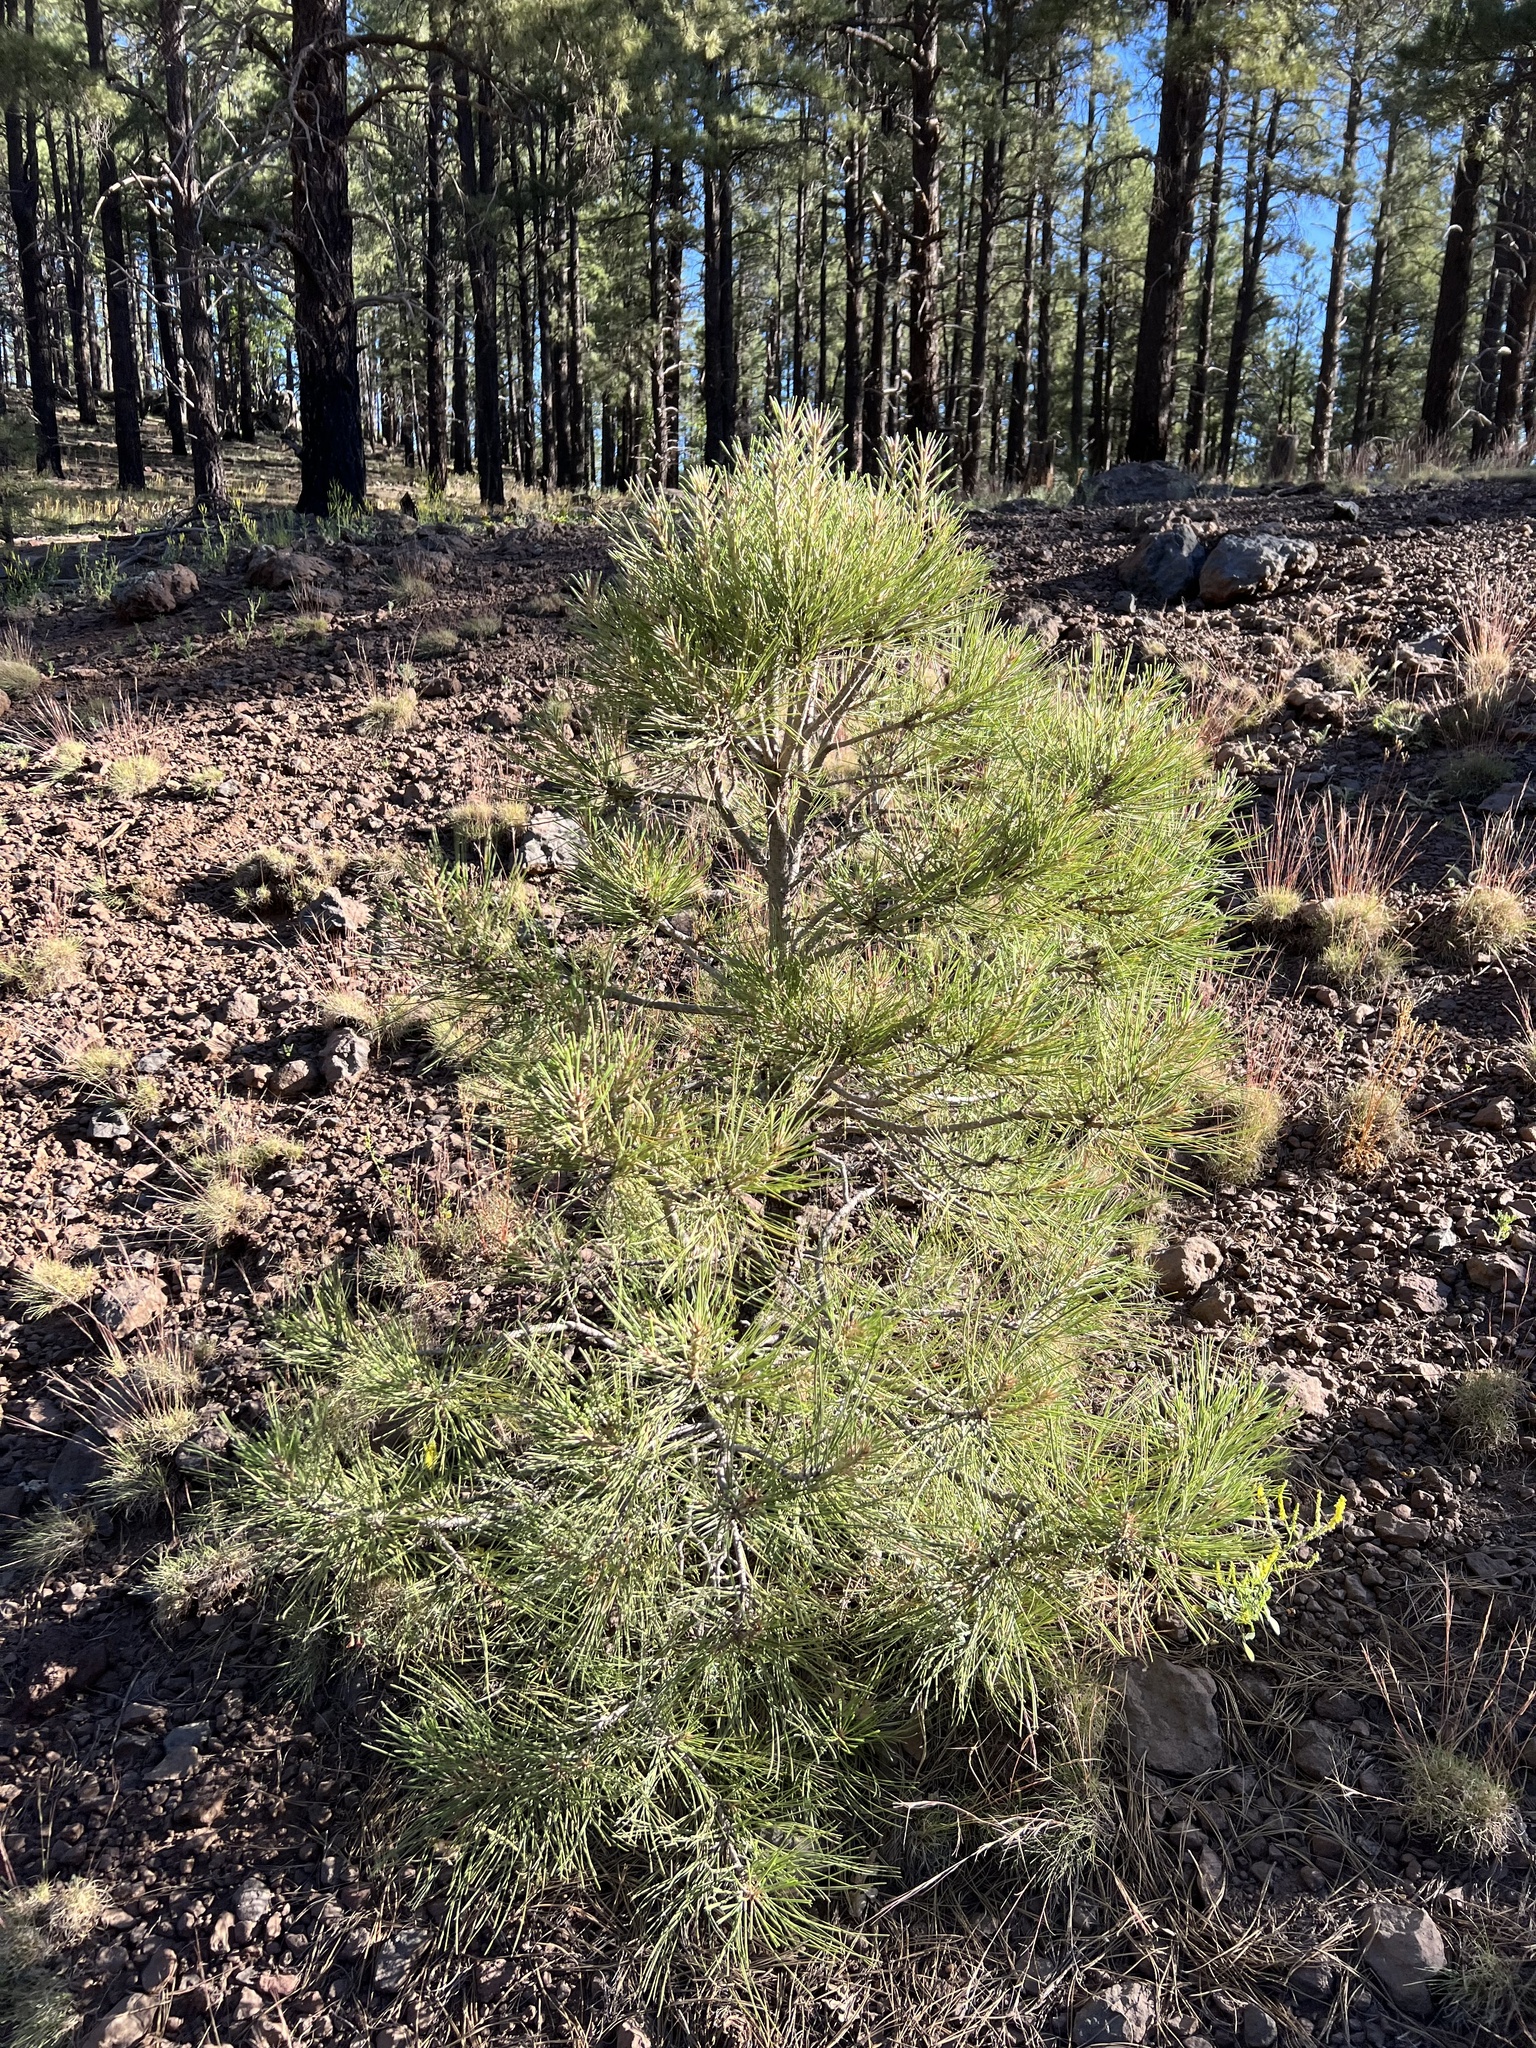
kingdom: Plantae
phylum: Tracheophyta
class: Pinopsida
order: Pinales
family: Pinaceae
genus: Pinus
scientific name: Pinus ponderosa
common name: Western yellow-pine
